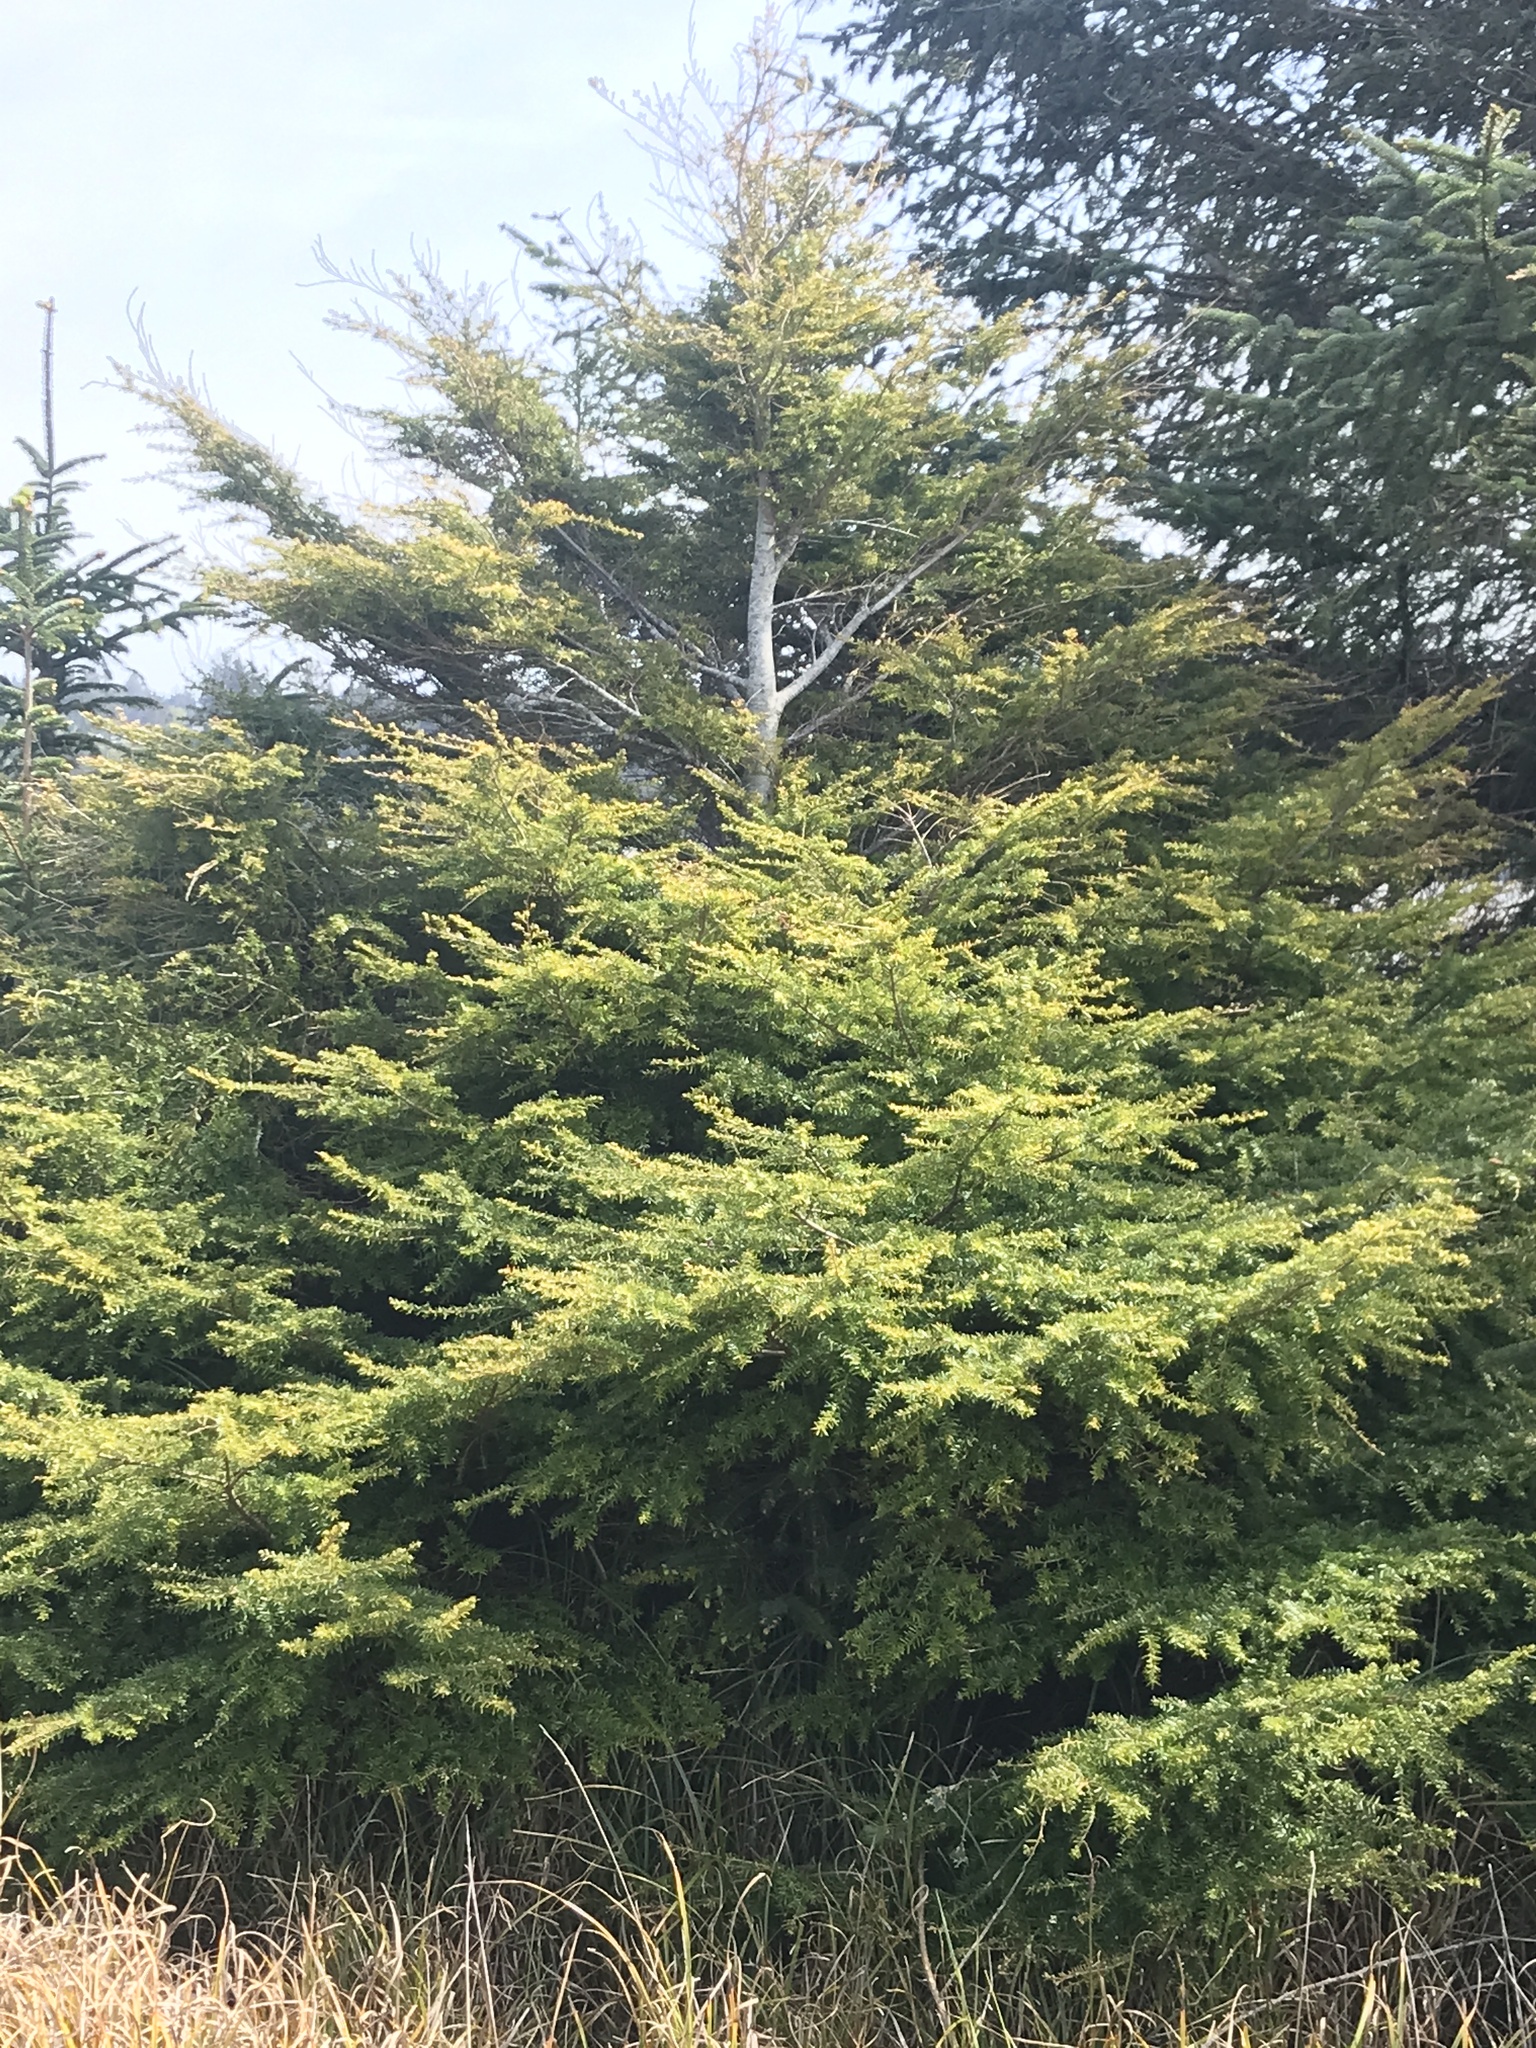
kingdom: Plantae
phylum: Tracheophyta
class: Pinopsida
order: Pinales
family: Pinaceae
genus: Tsuga
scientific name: Tsuga heterophylla
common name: Western hemlock
